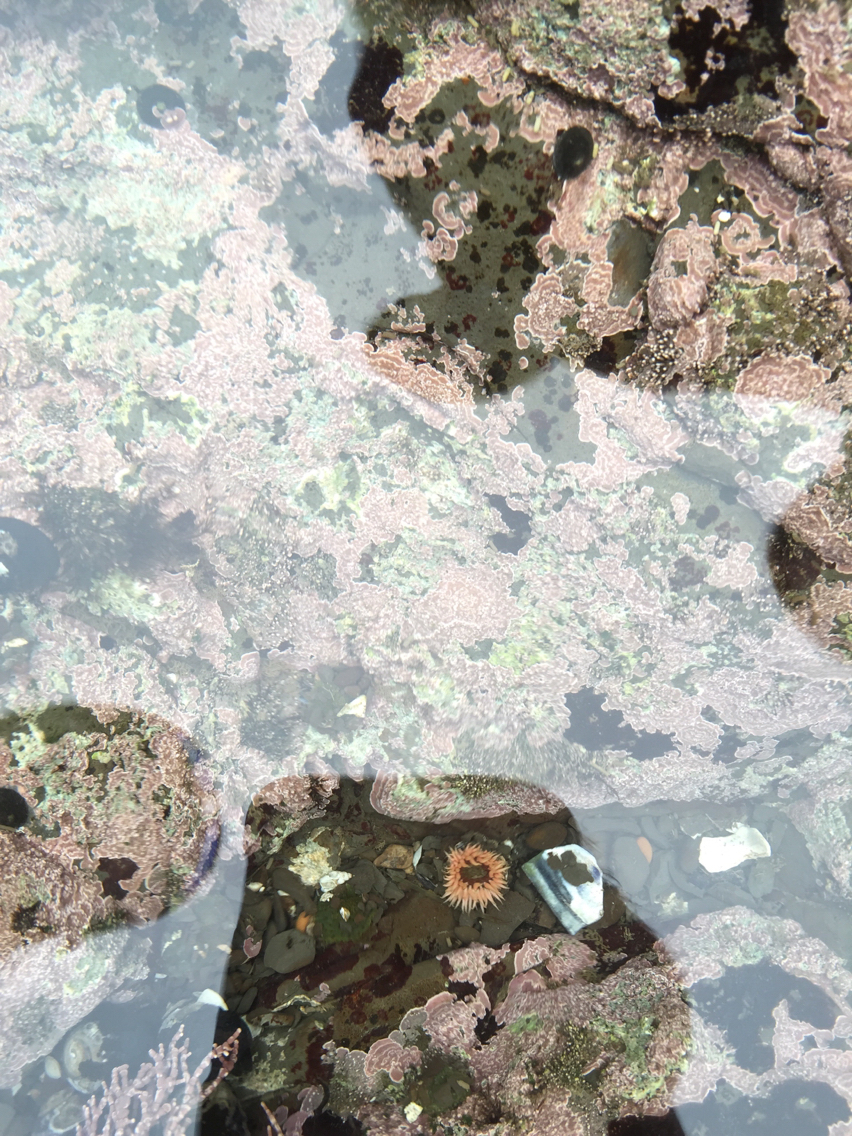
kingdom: Animalia
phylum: Cnidaria
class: Anthozoa
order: Actiniaria
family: Actiniidae
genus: Anthopleura
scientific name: Anthopleura artemisia
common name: Buried sea anemone
